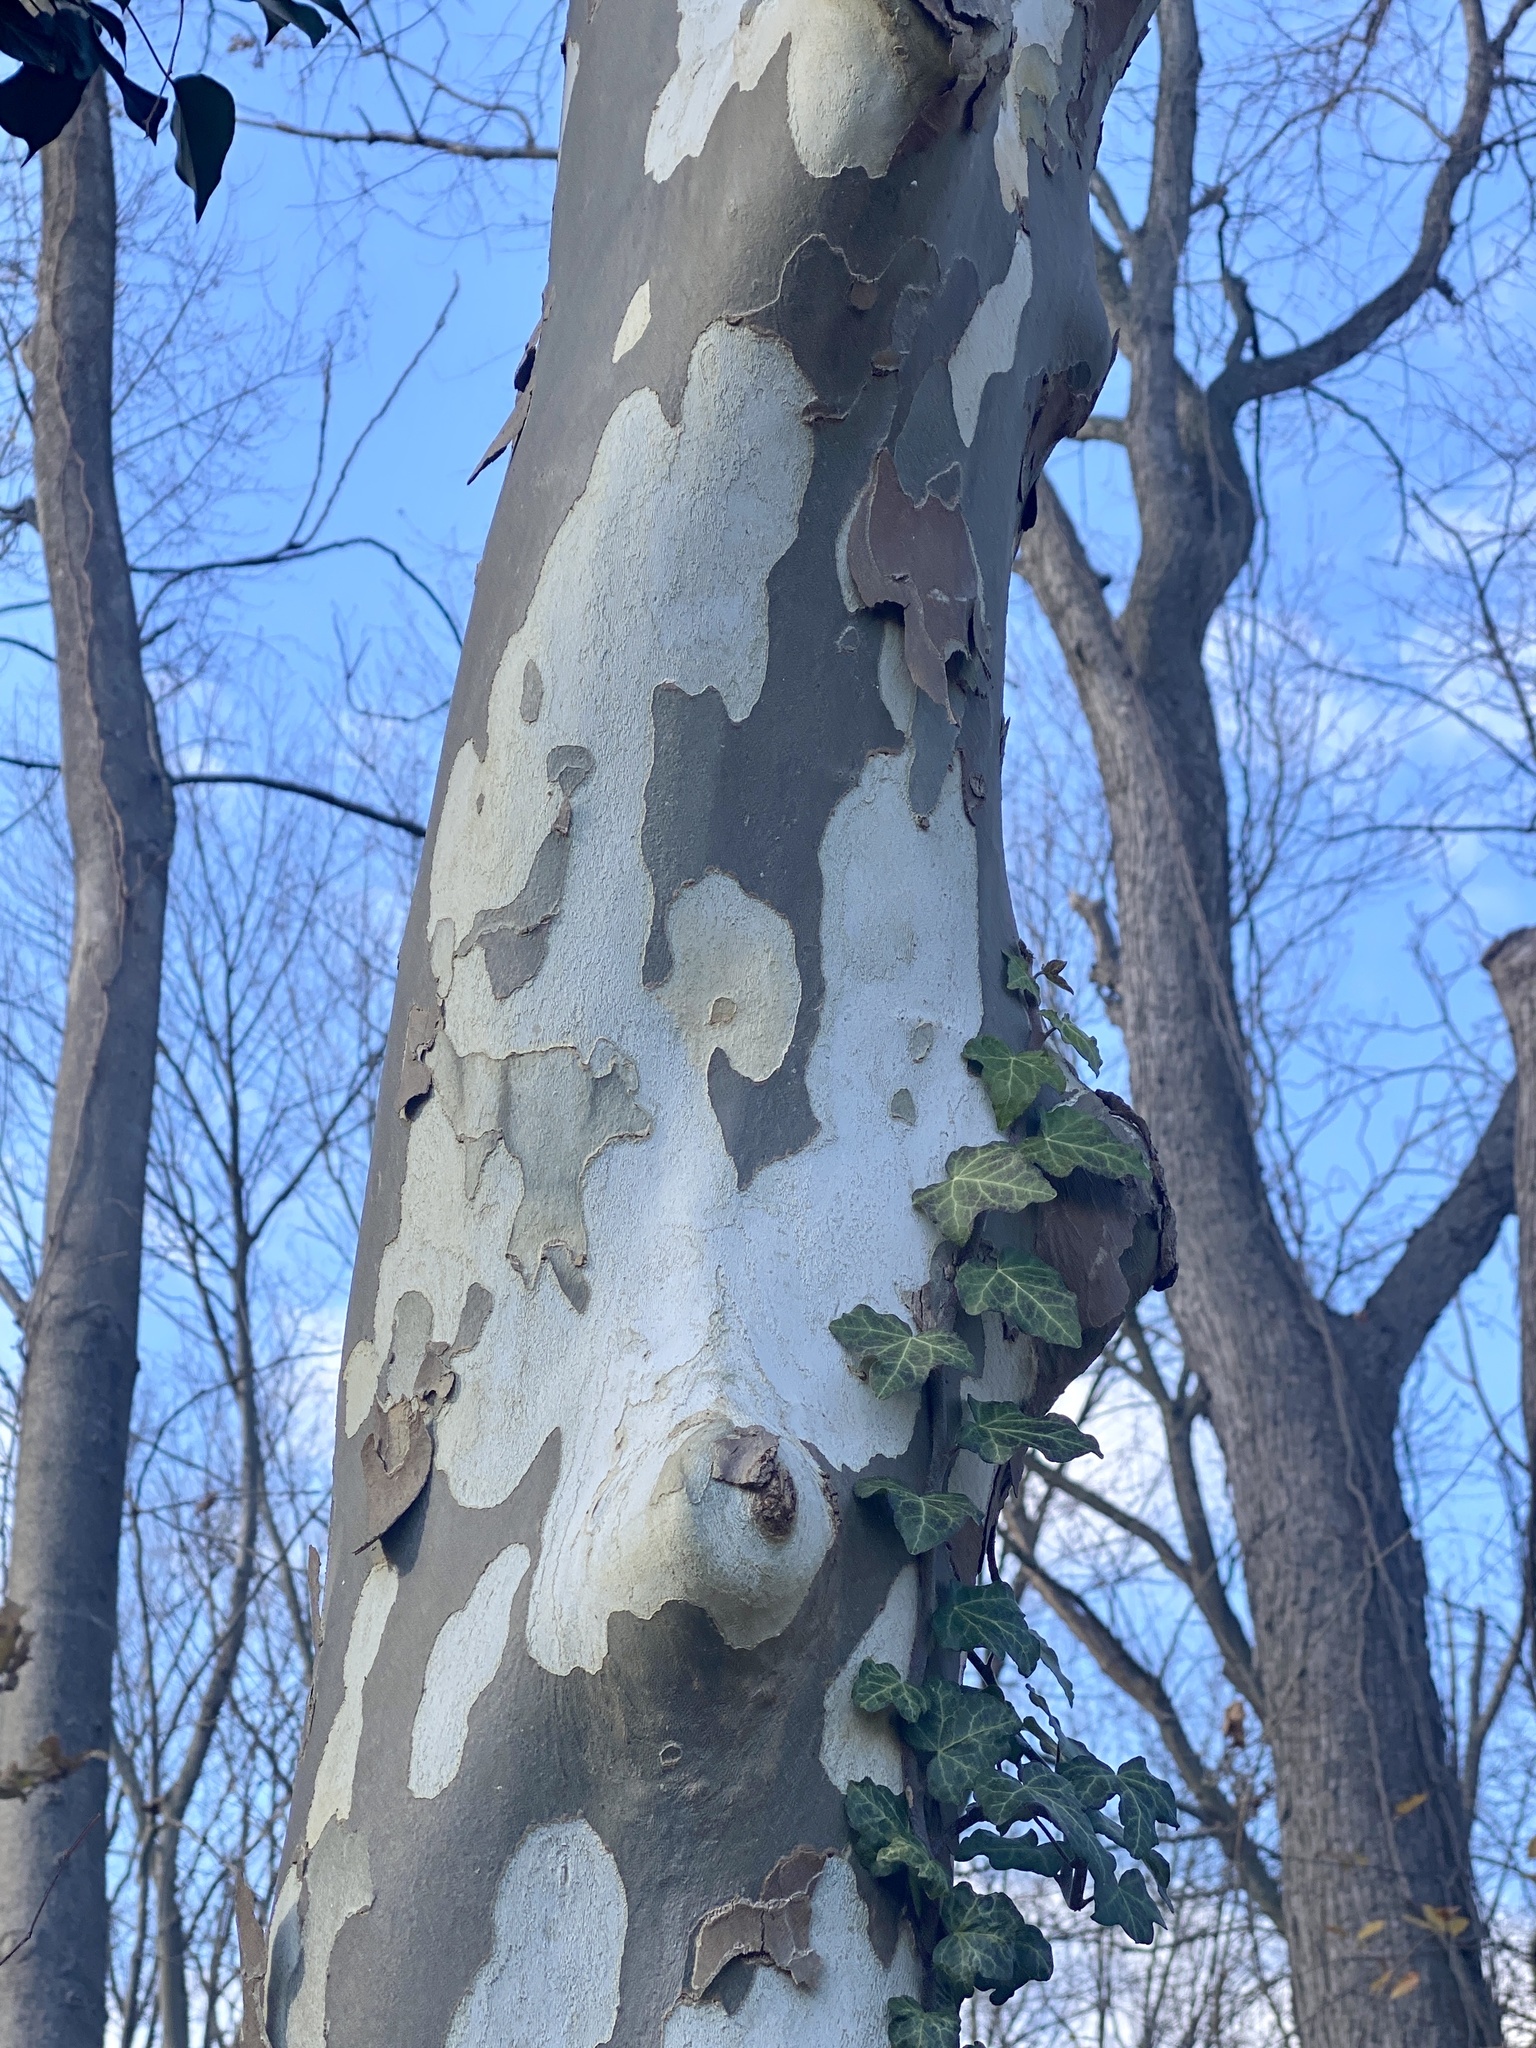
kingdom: Plantae
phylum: Tracheophyta
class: Magnoliopsida
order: Proteales
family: Platanaceae
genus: Platanus
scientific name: Platanus occidentalis
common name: American sycamore
